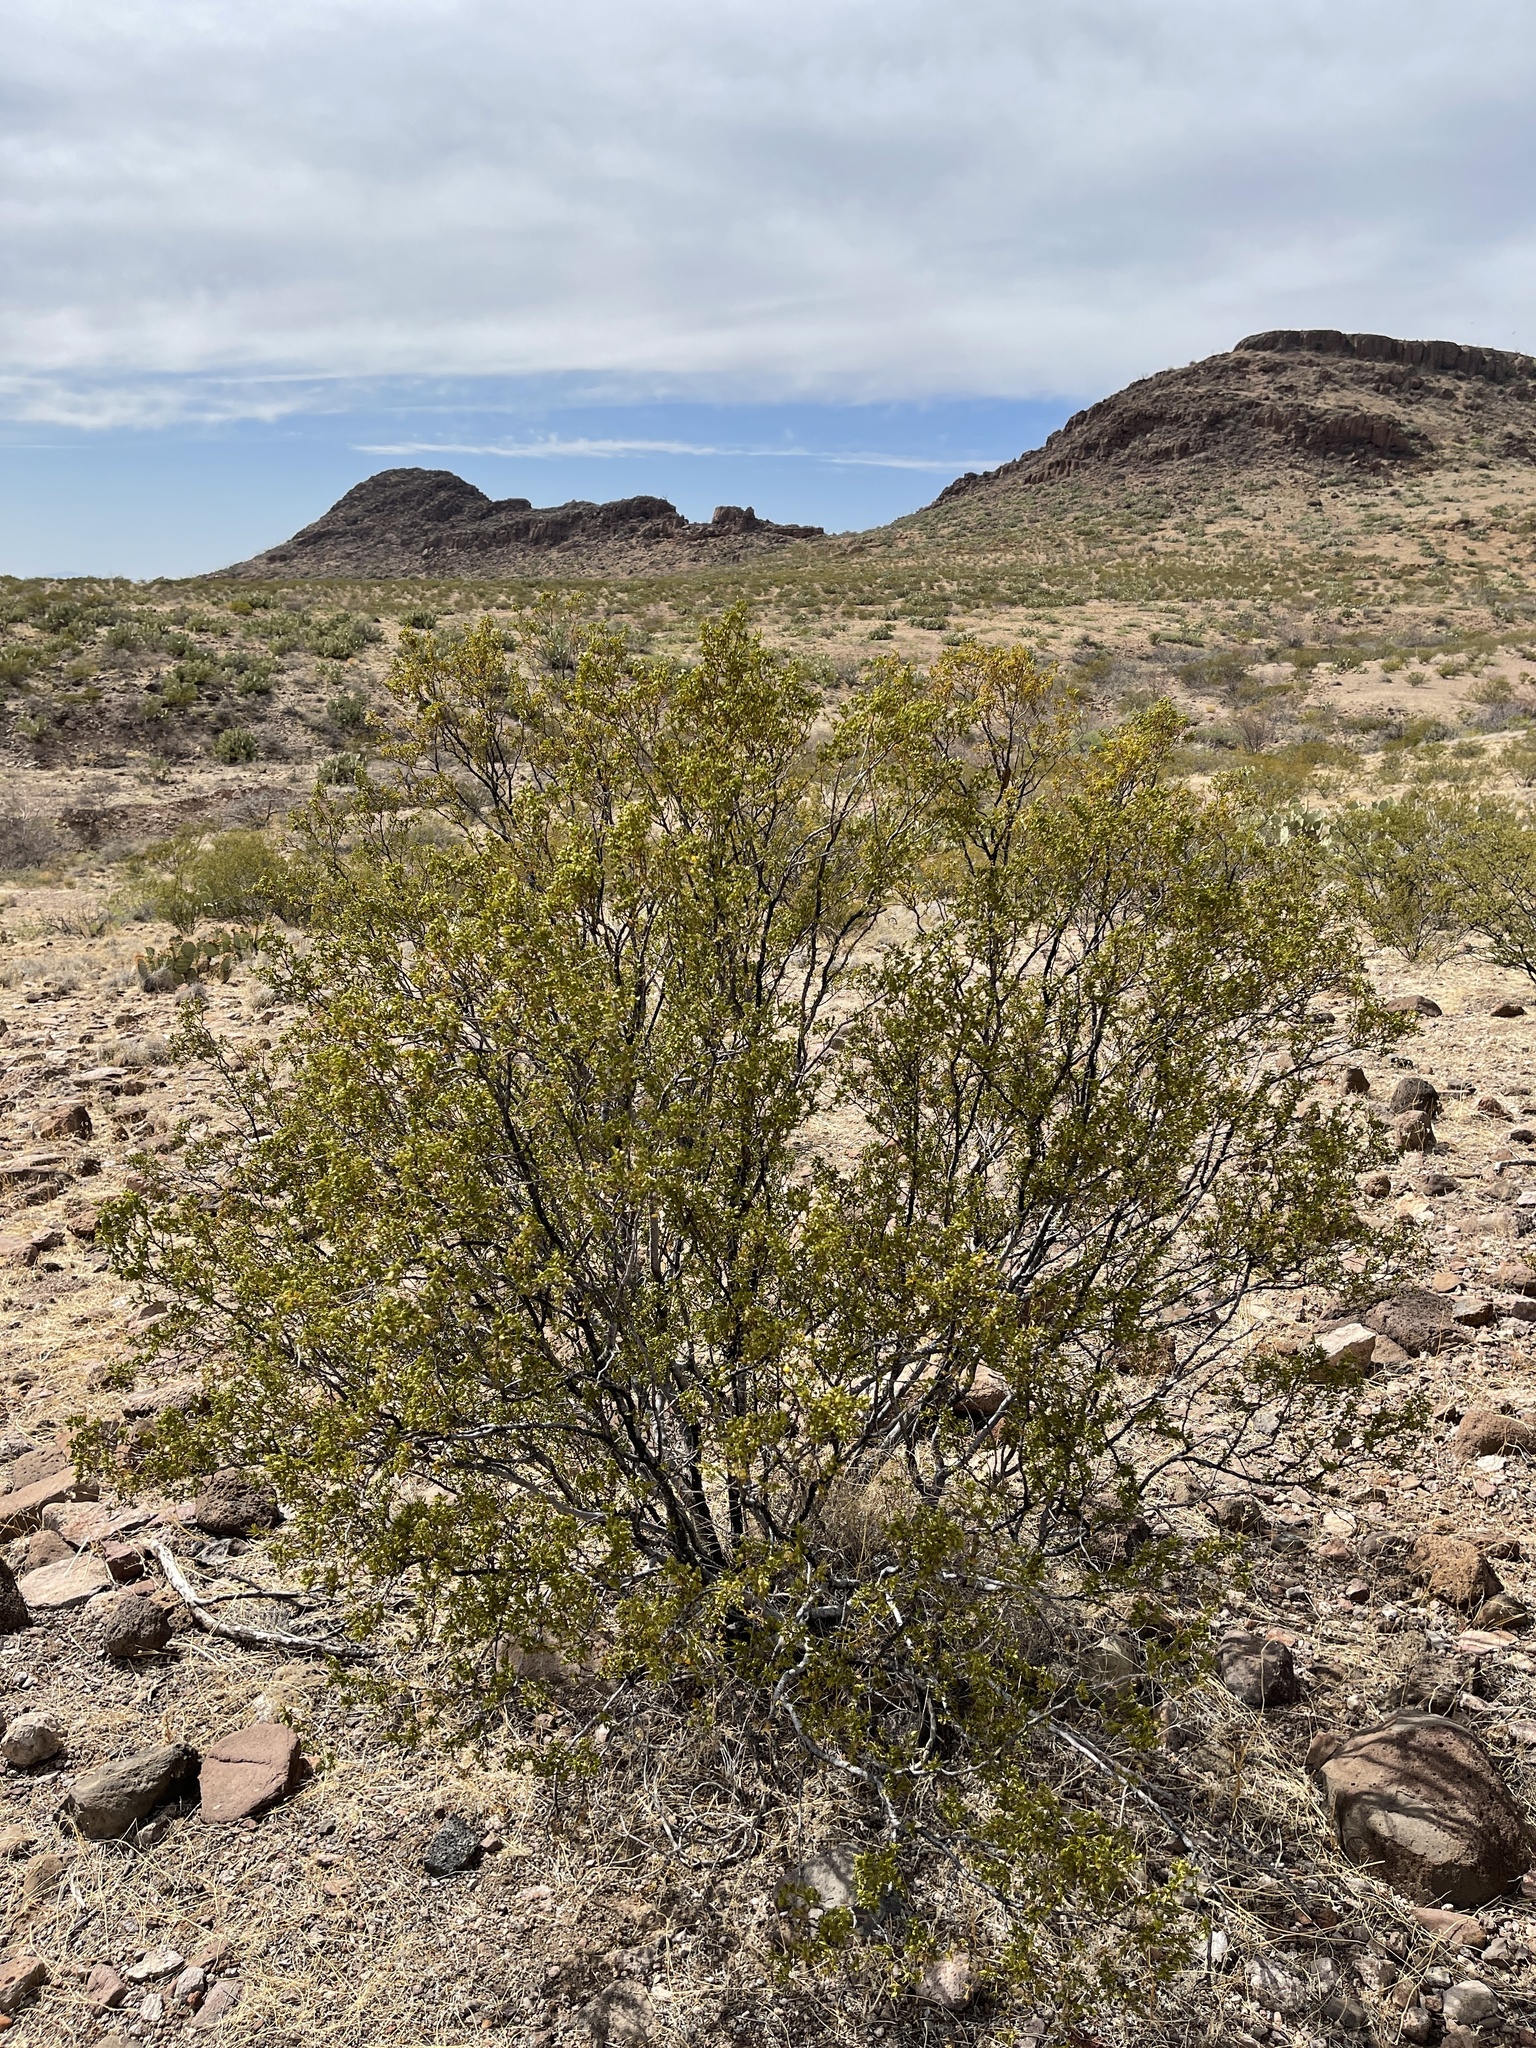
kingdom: Plantae
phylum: Tracheophyta
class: Magnoliopsida
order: Zygophyllales
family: Zygophyllaceae
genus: Larrea
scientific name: Larrea tridentata
